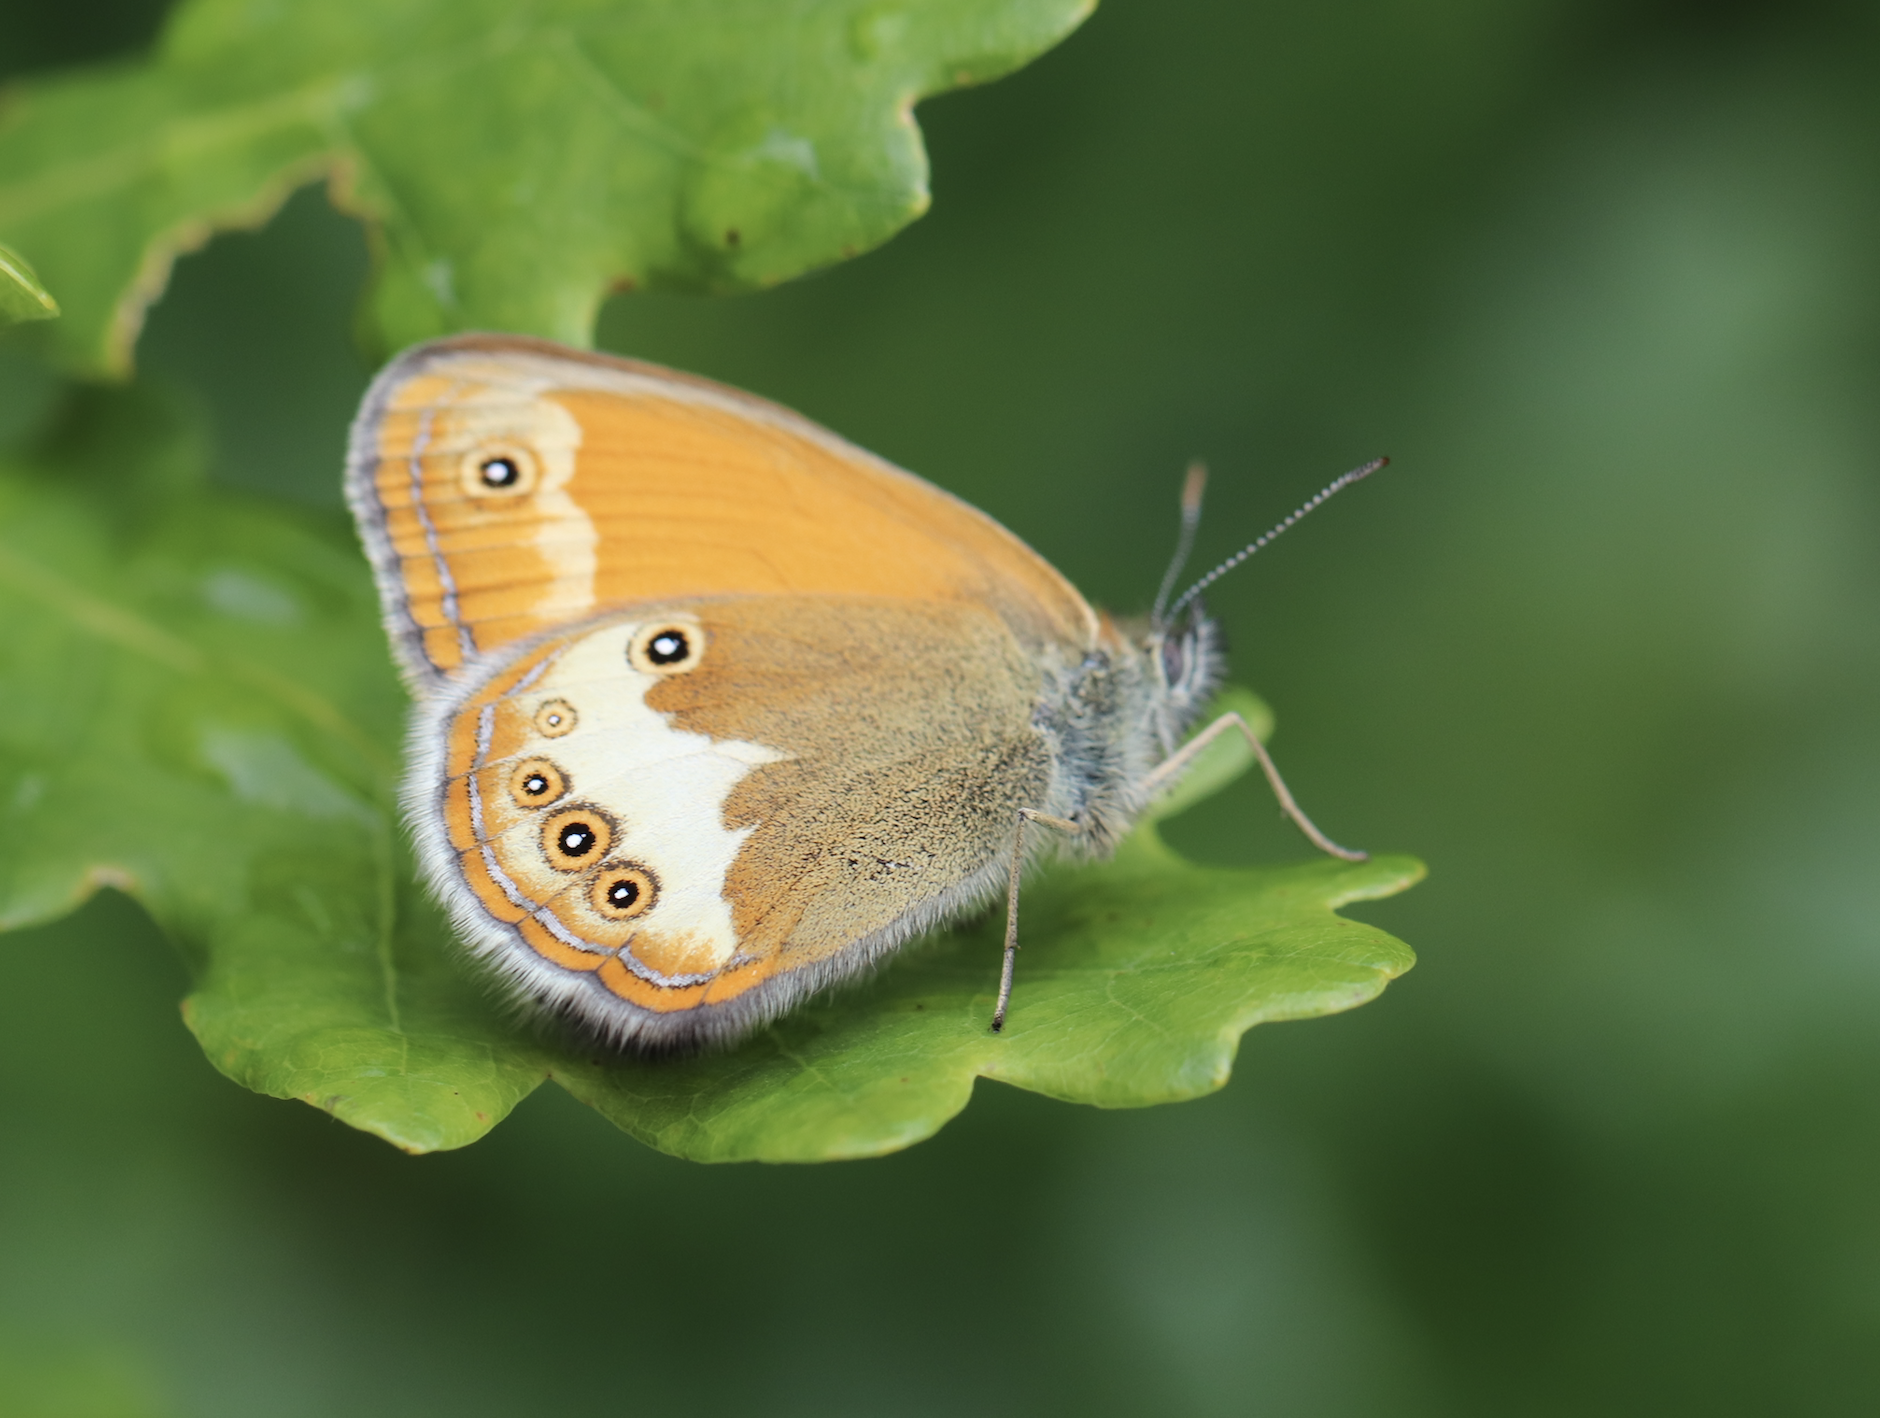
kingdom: Animalia
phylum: Arthropoda
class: Insecta
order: Lepidoptera
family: Nymphalidae
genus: Coenonympha
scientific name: Coenonympha arcania
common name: Pearly heath
